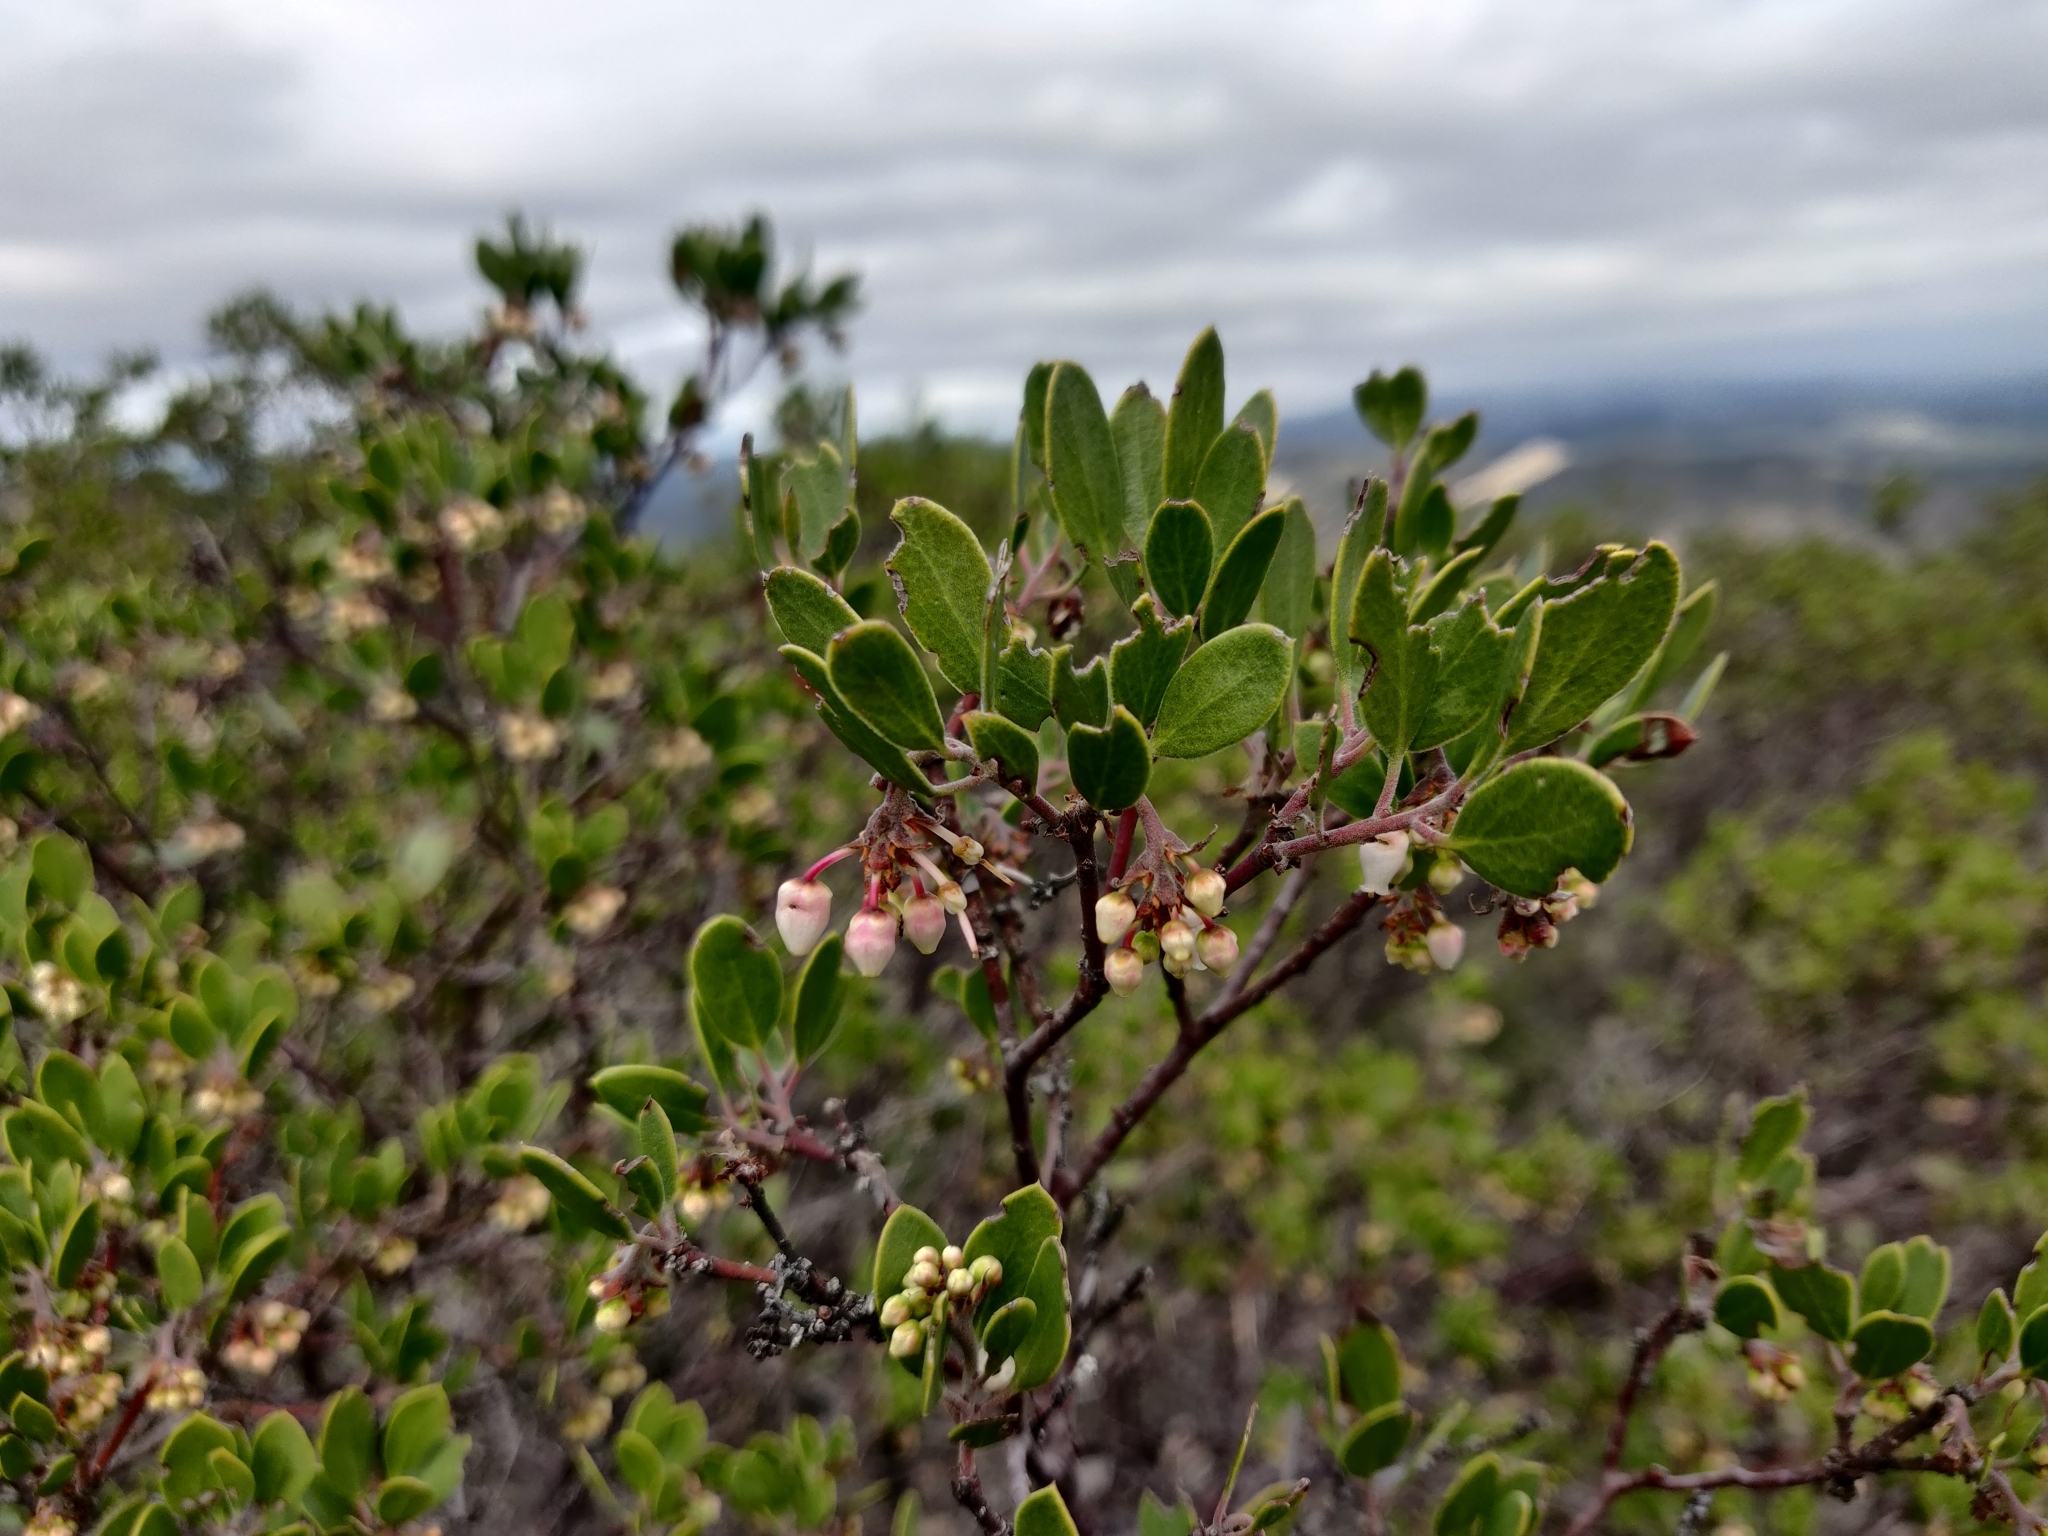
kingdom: Plantae
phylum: Tracheophyta
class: Magnoliopsida
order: Ericales
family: Ericaceae
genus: Arctostaphylos
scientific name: Arctostaphylos pungens
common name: Mexican manzanita
